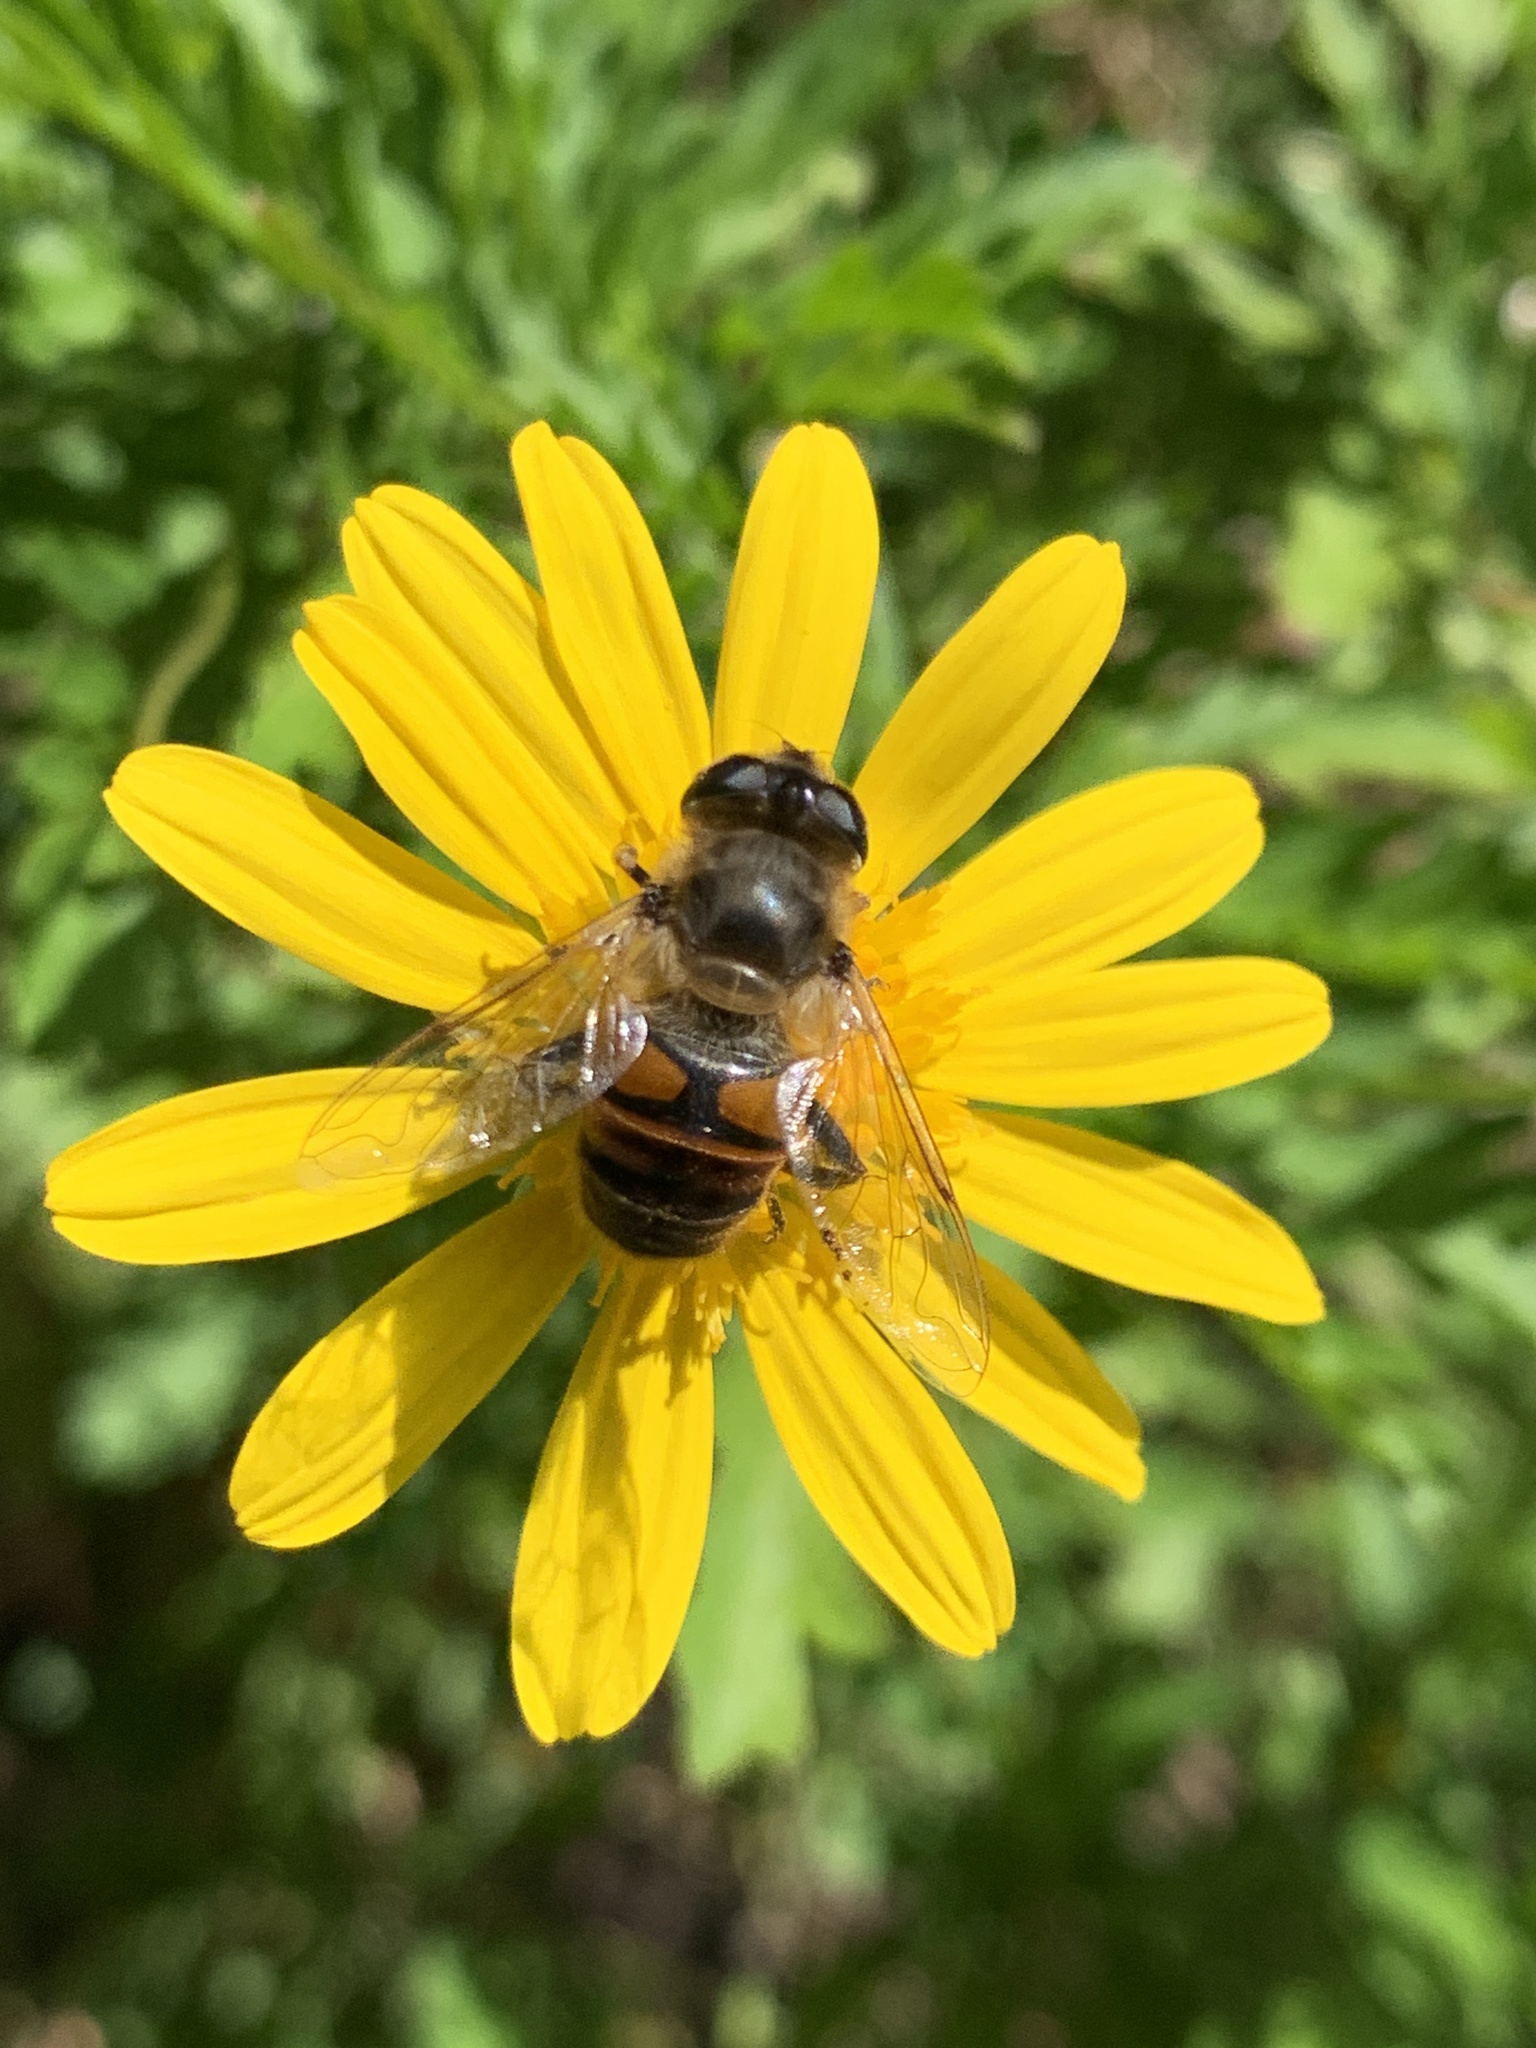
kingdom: Animalia
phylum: Arthropoda
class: Insecta
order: Diptera
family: Syrphidae
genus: Eristalis
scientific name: Eristalis tenax
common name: Drone fly
